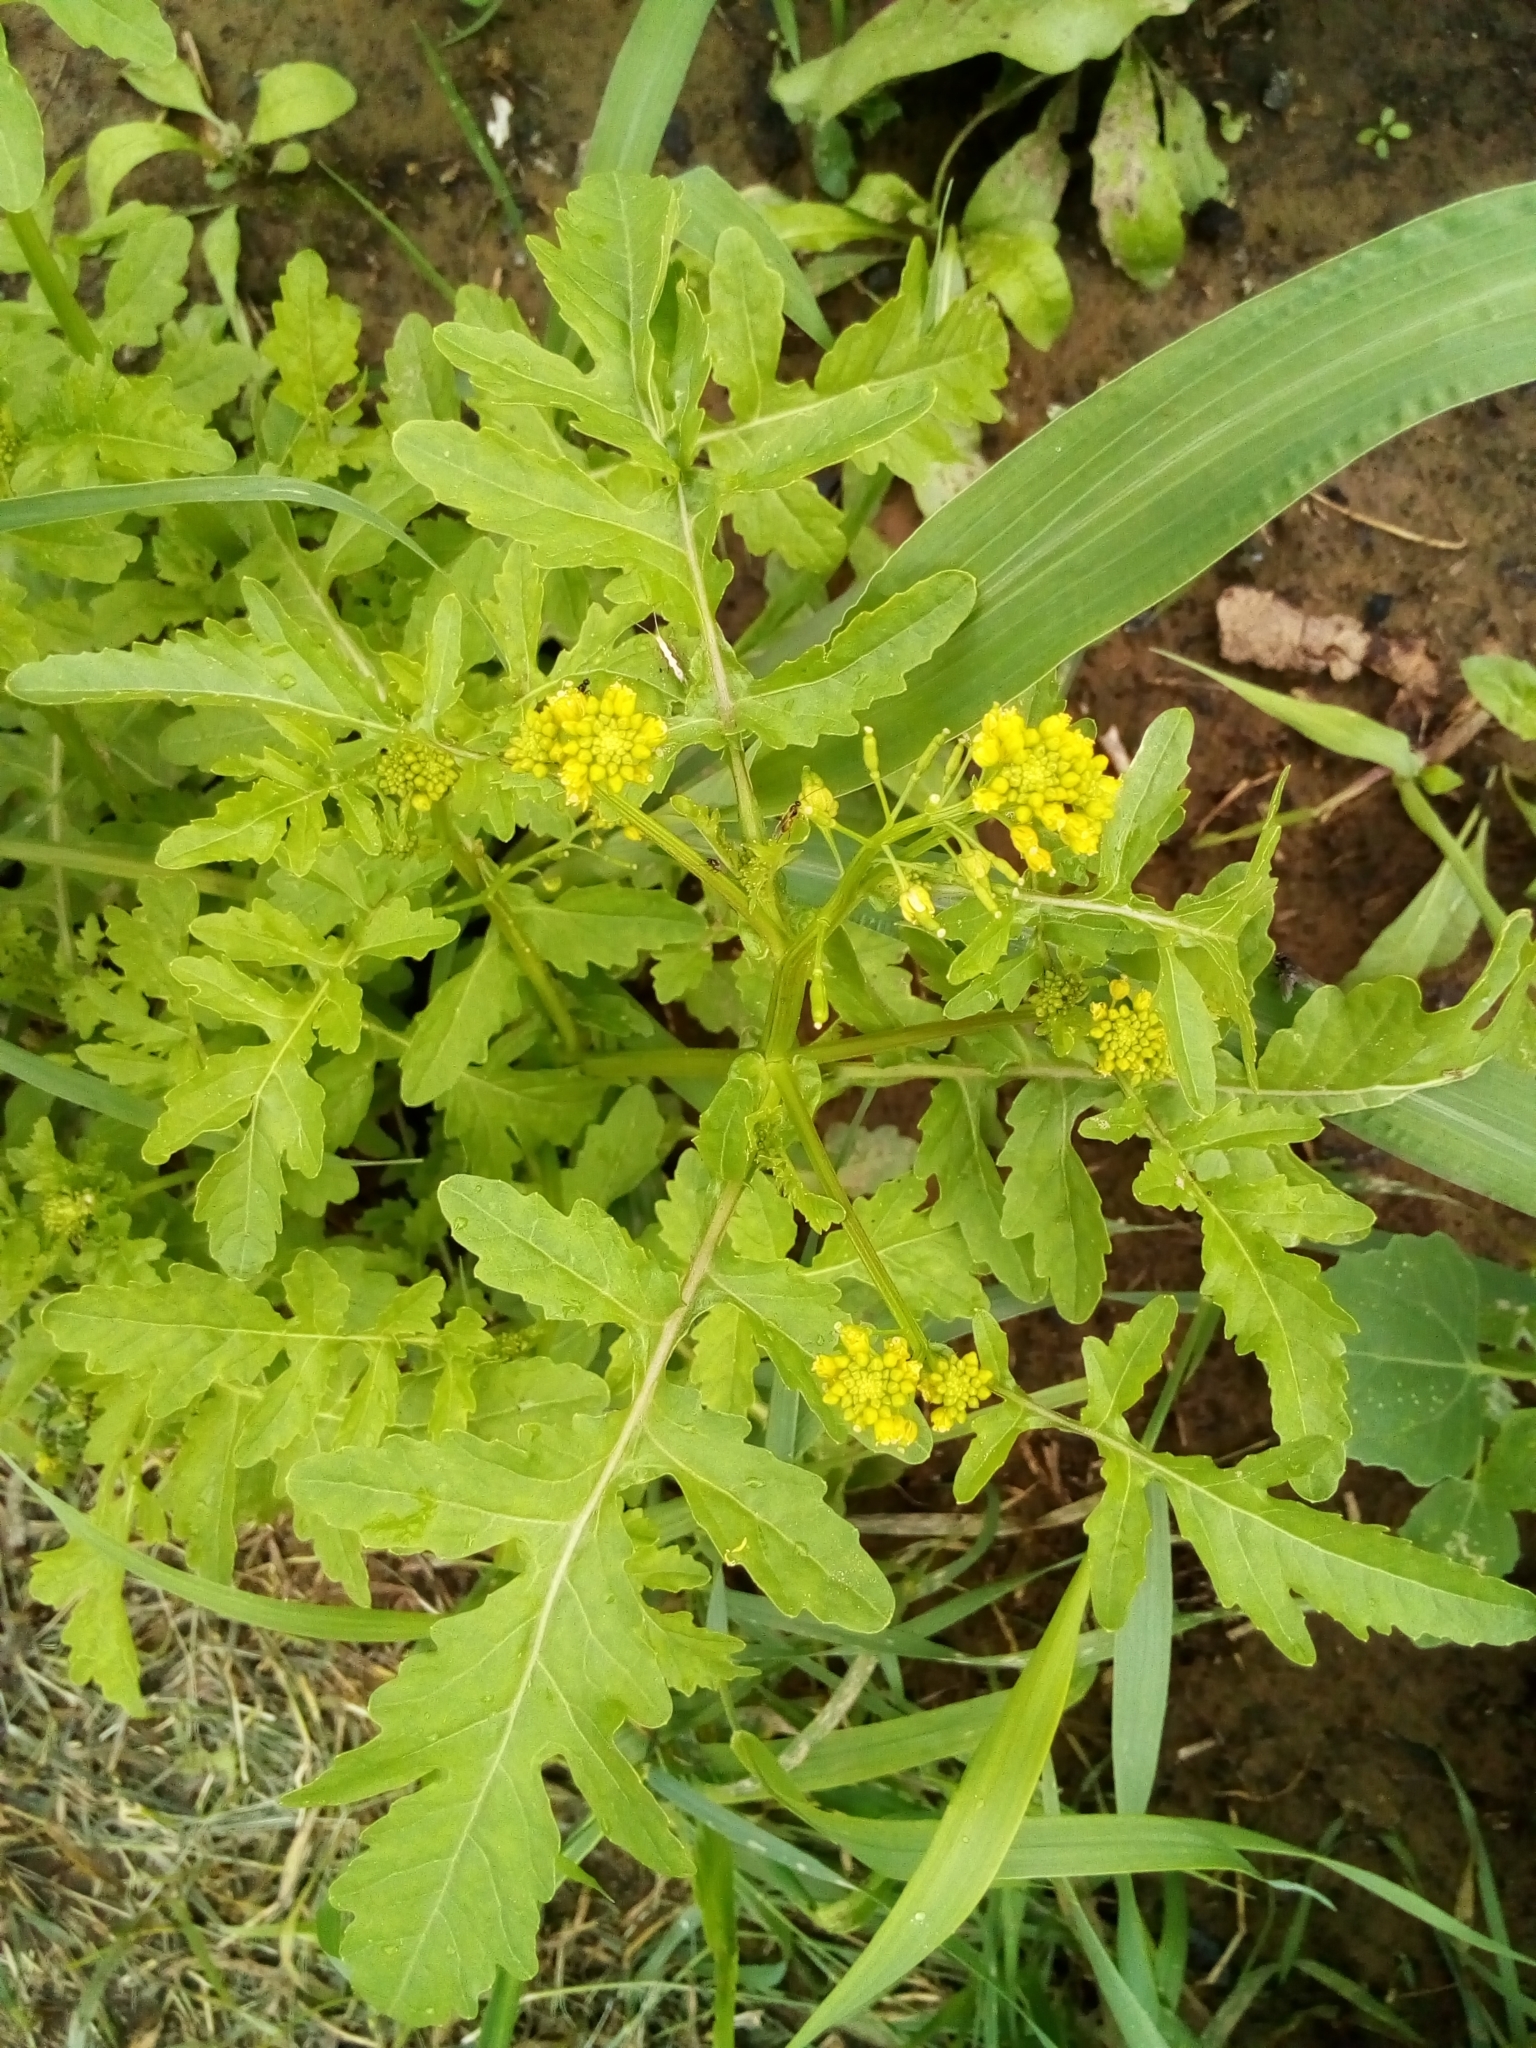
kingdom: Plantae
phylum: Tracheophyta
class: Magnoliopsida
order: Brassicales
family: Brassicaceae
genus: Rorippa
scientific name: Rorippa palustris
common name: Marsh yellow-cress
